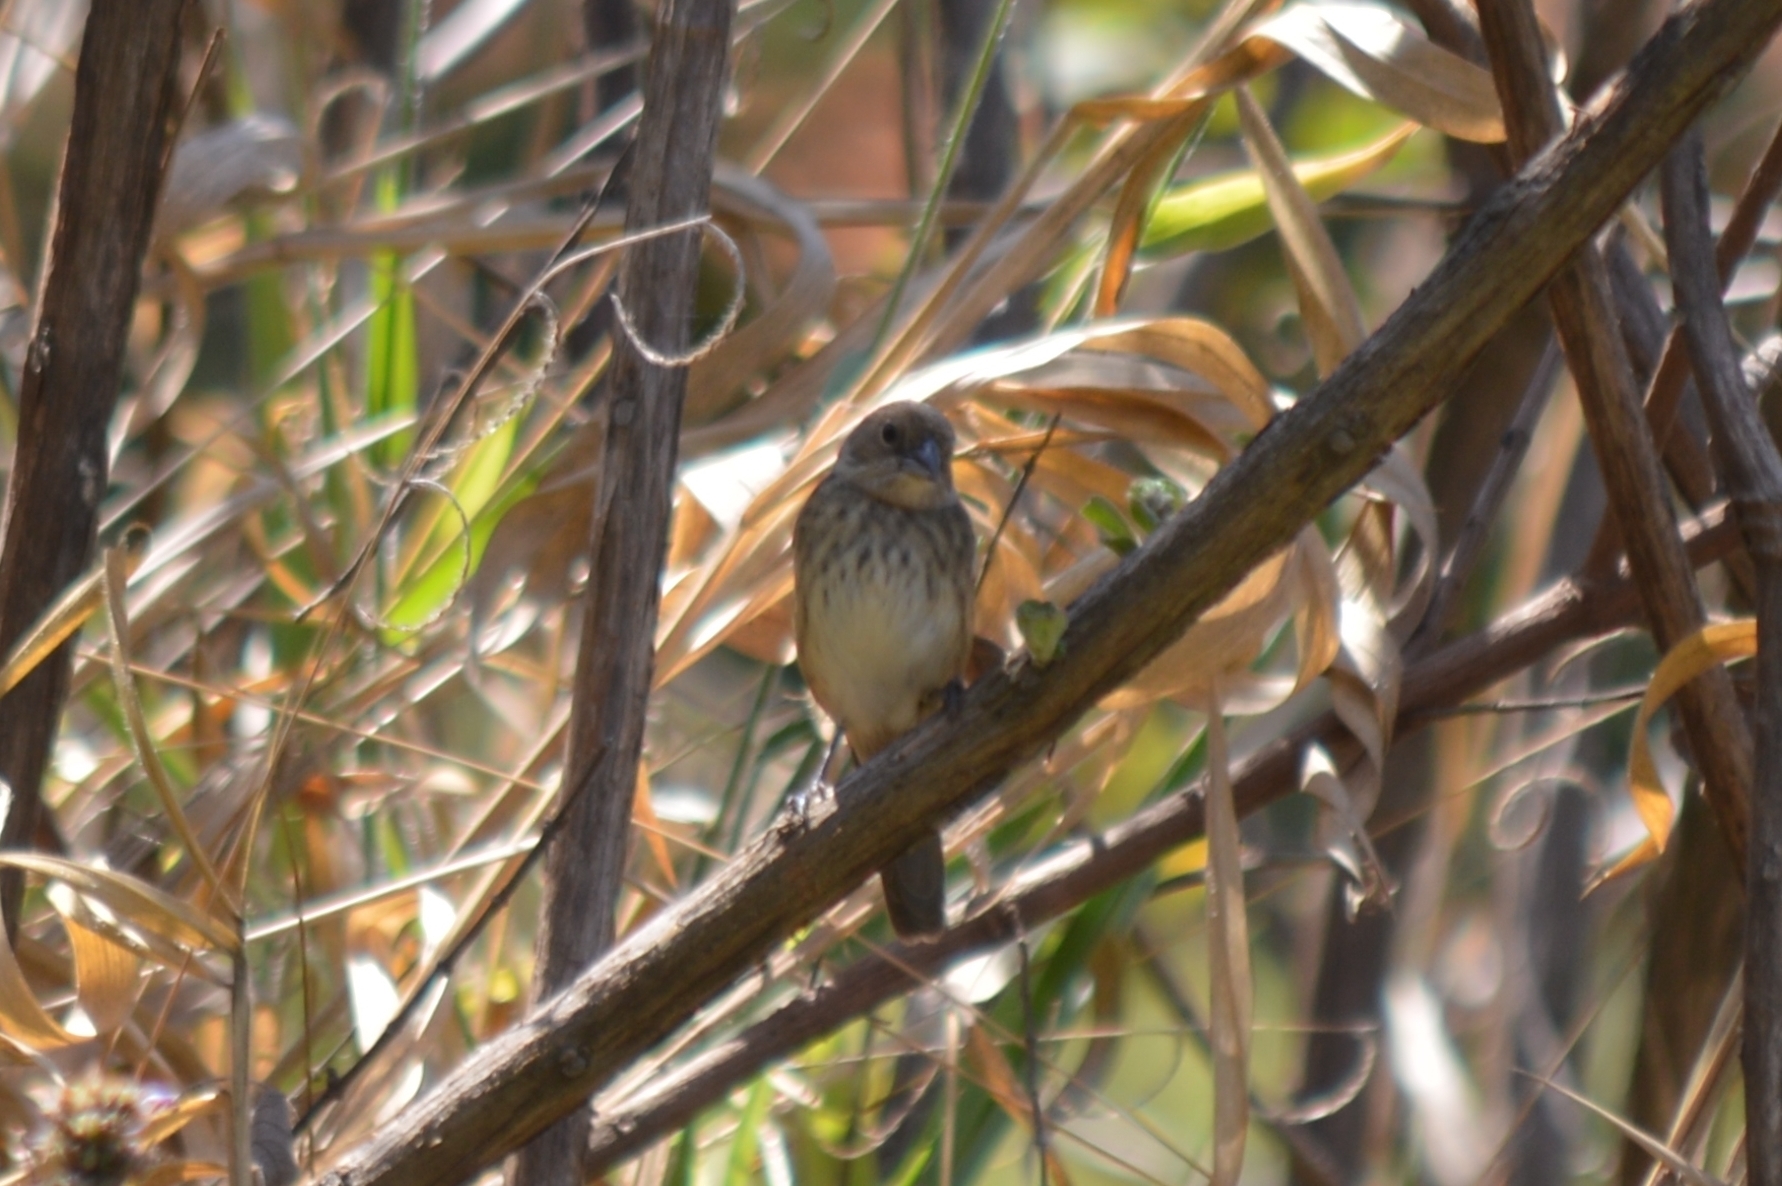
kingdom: Animalia
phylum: Chordata
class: Aves
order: Passeriformes
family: Thraupidae
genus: Volatinia
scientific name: Volatinia jacarina
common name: Blue-black grassquit
